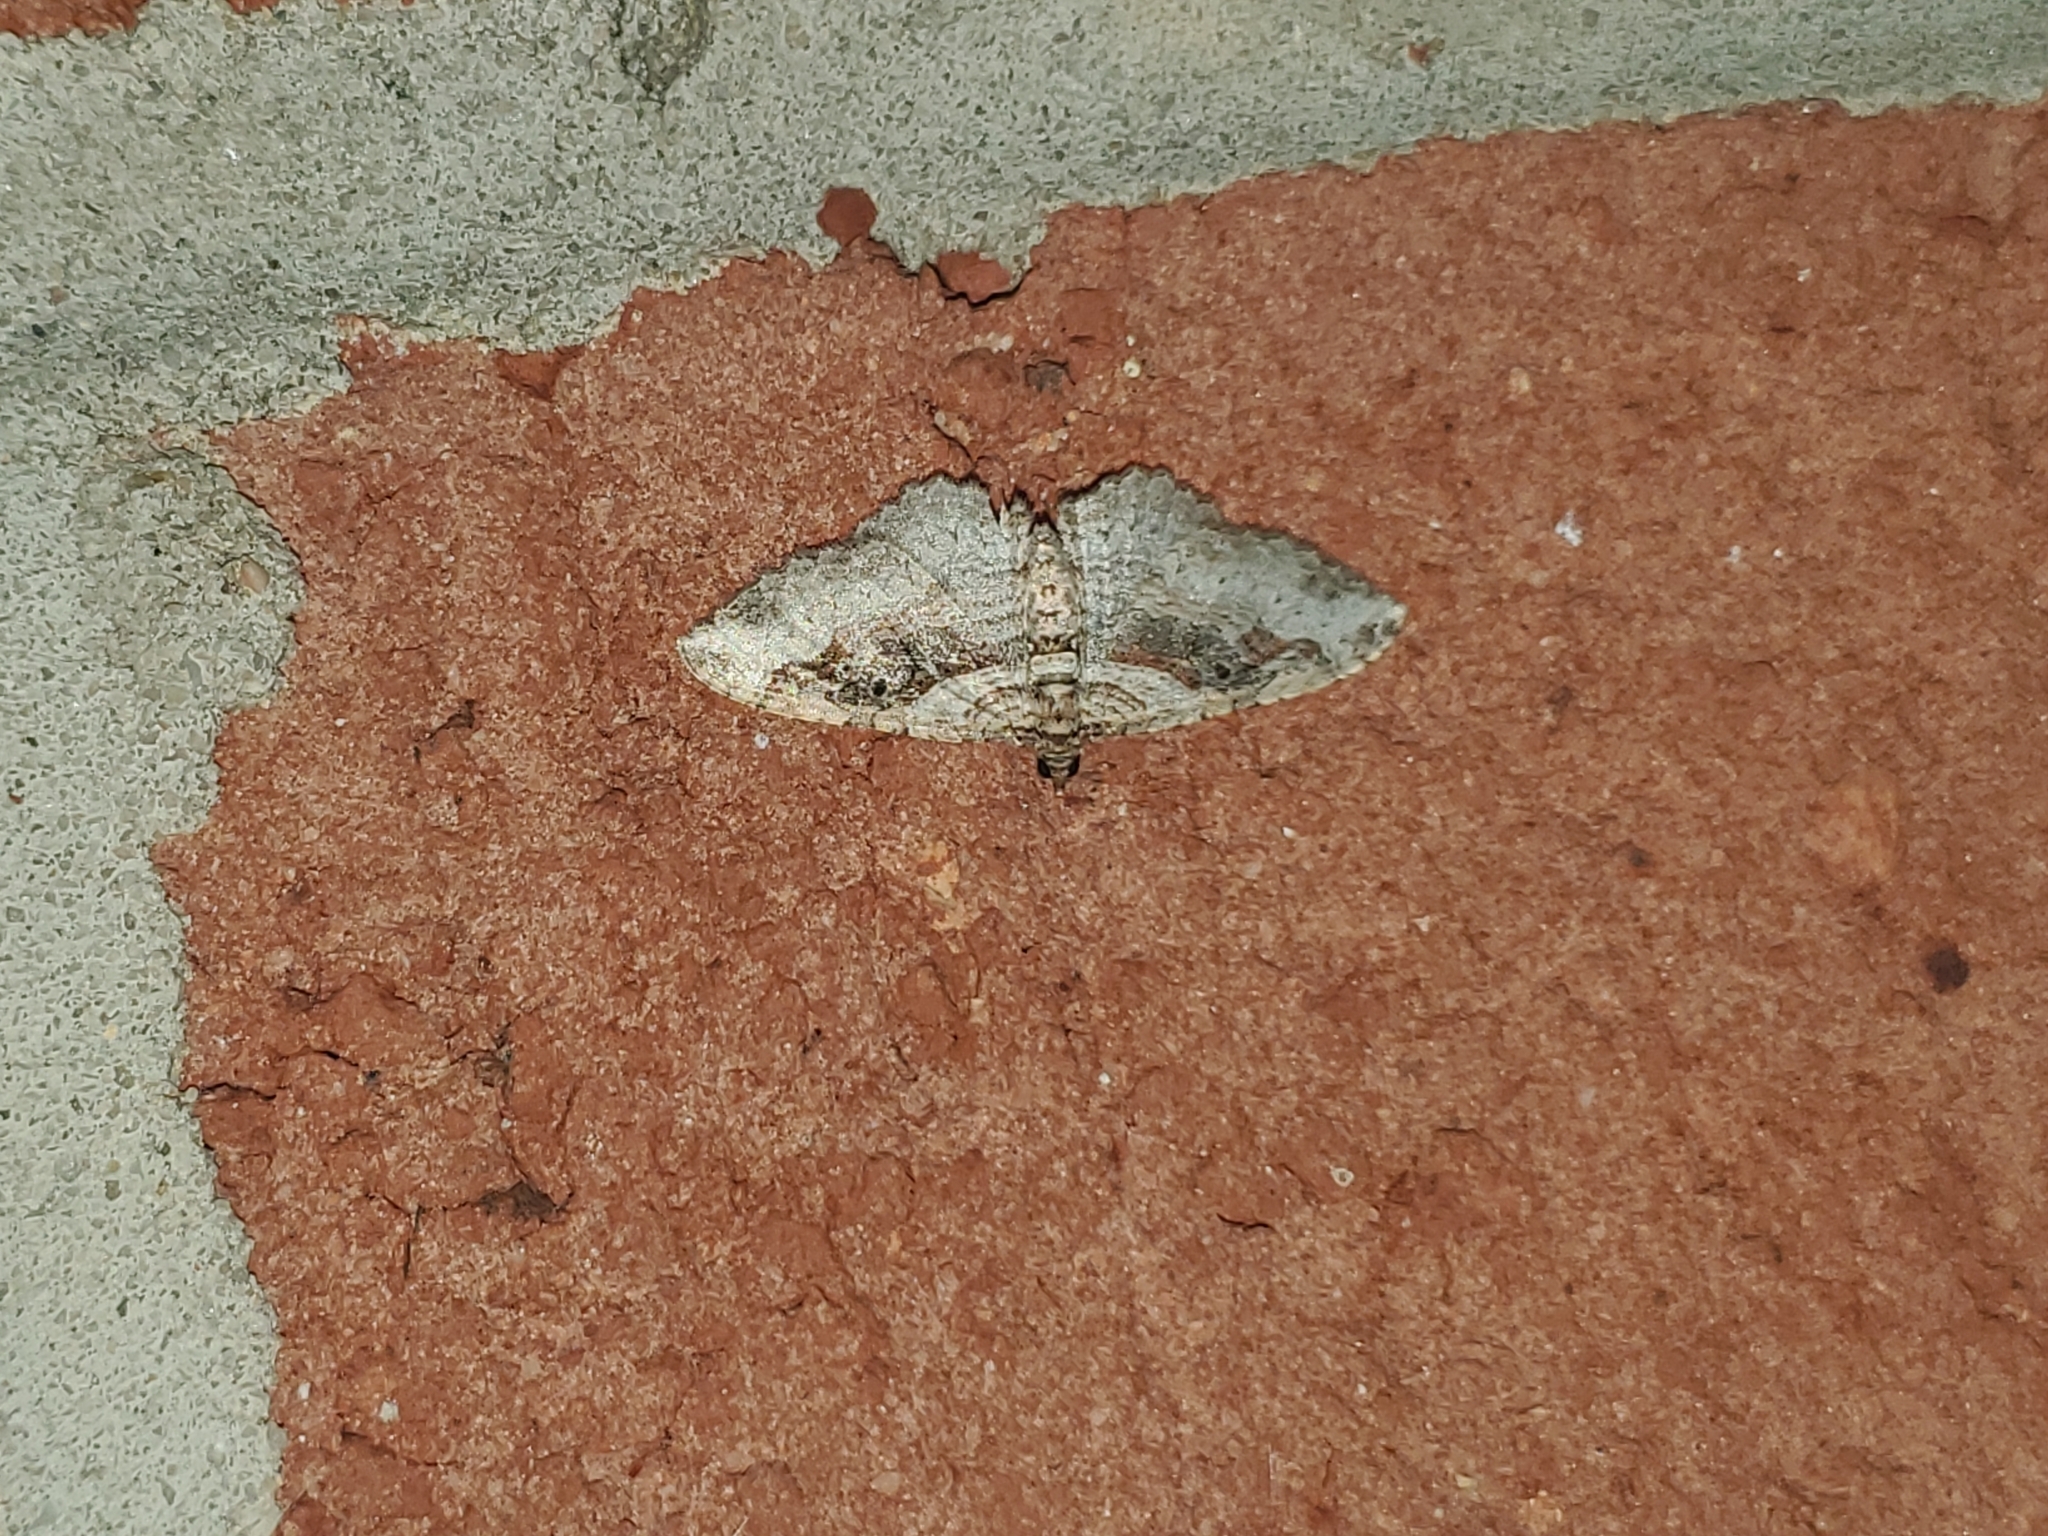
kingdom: Animalia
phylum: Arthropoda
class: Insecta
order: Lepidoptera
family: Geometridae
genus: Costaconvexa
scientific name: Costaconvexa centrostrigaria
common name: Bent-line carpet
